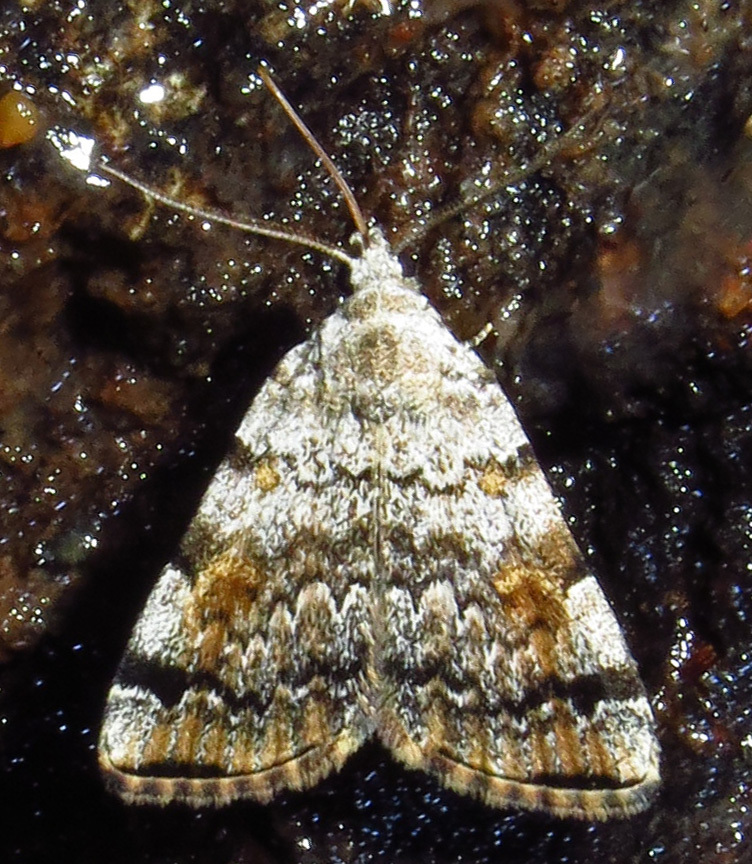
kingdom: Animalia
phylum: Arthropoda
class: Insecta
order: Lepidoptera
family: Erebidae
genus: Idia
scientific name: Idia americalis
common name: American idia moth
